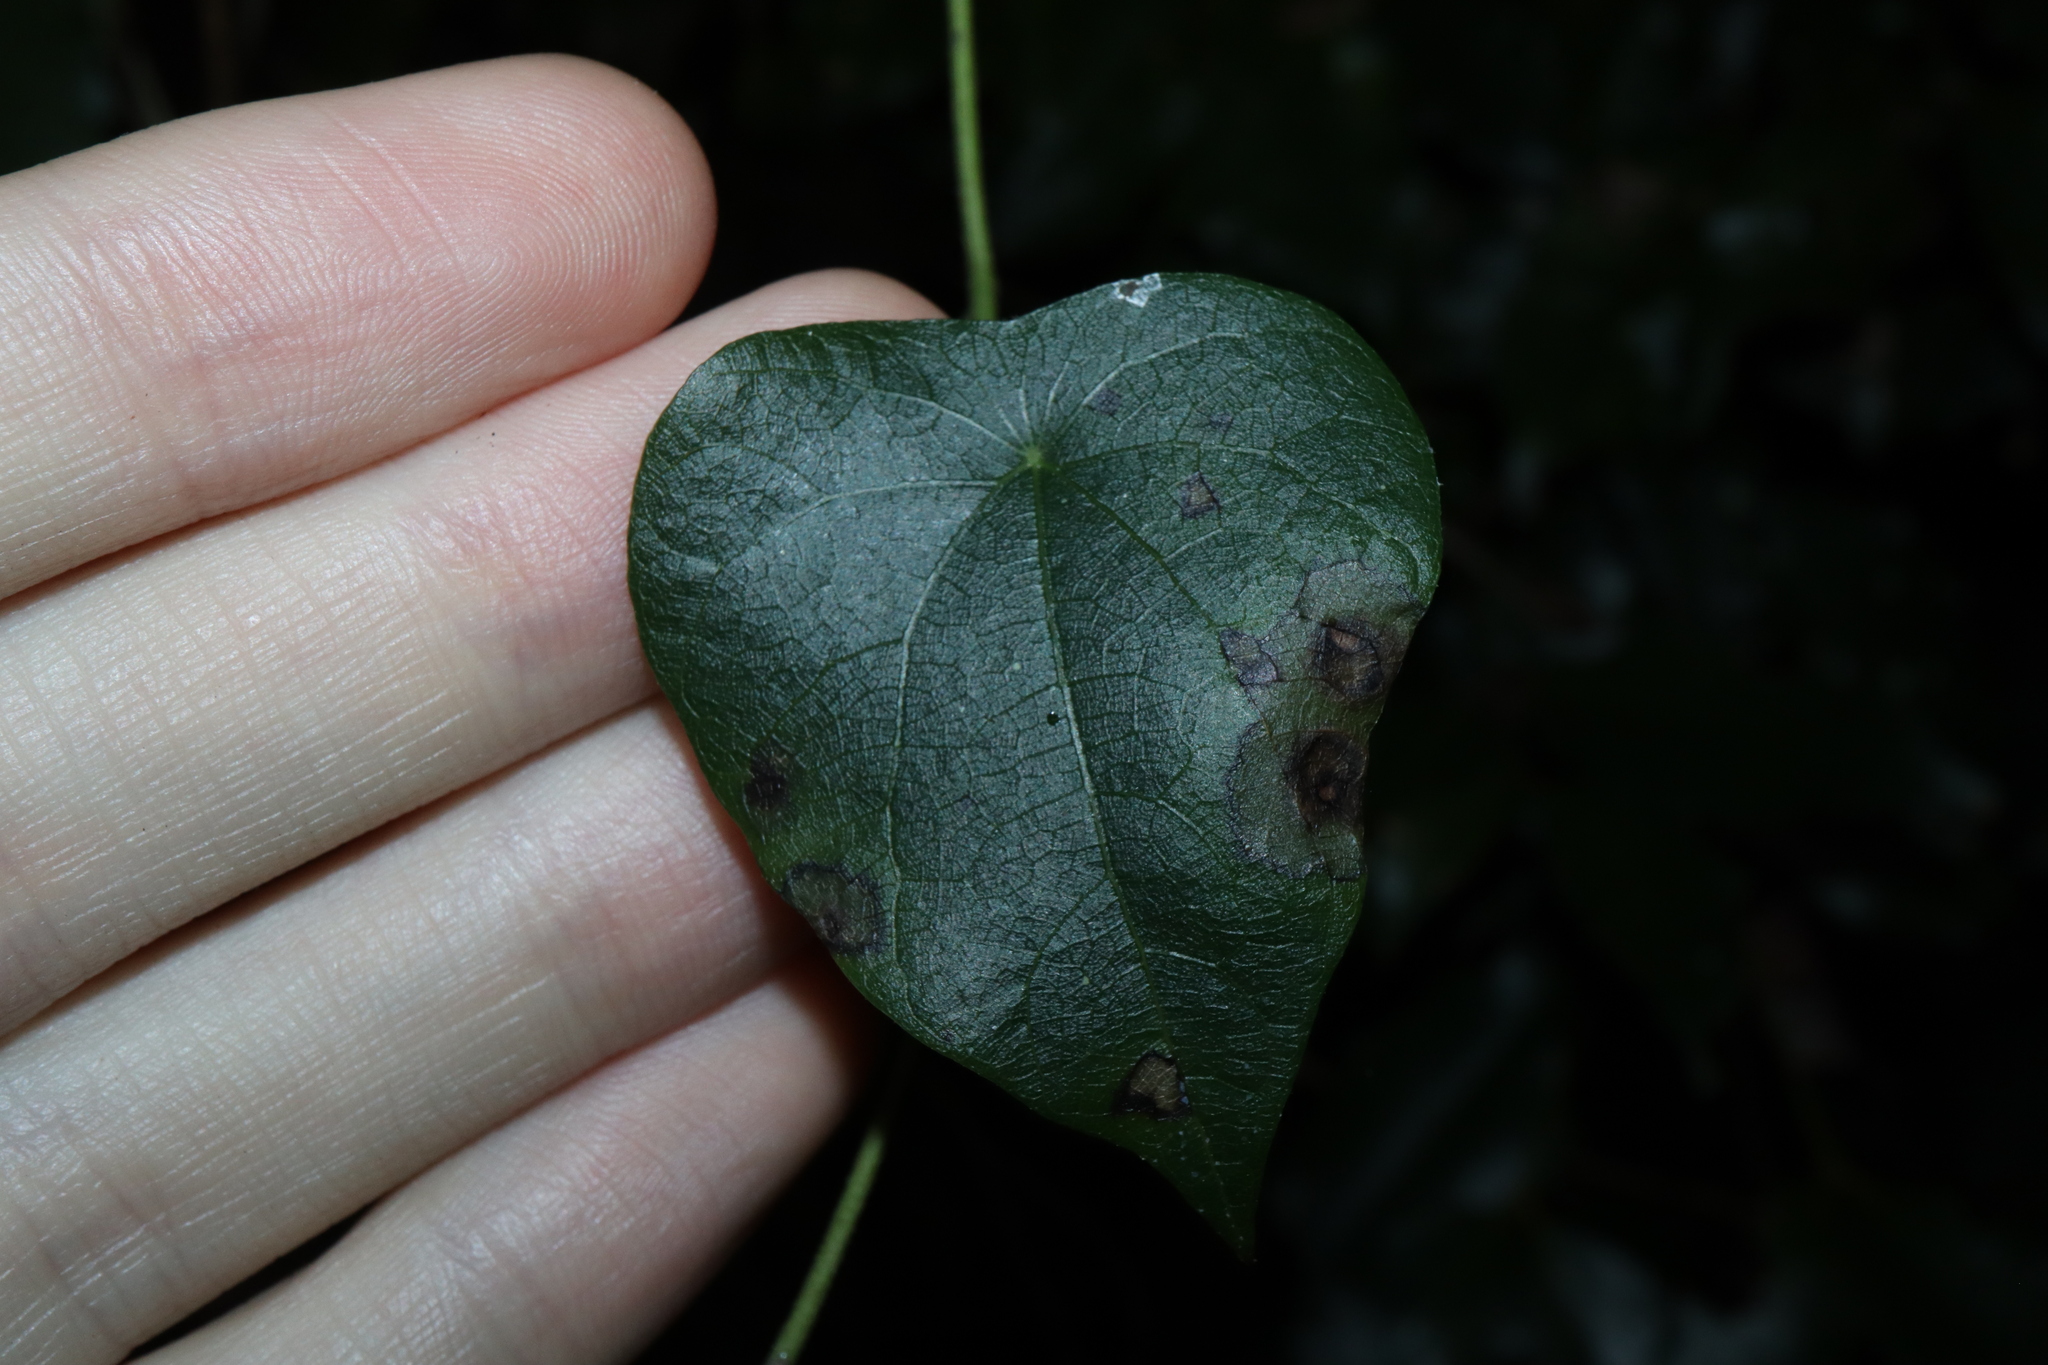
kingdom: Plantae
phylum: Tracheophyta
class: Magnoliopsida
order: Ranunculales
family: Menispermaceae
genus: Stephania
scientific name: Stephania japonica
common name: Snake vine
